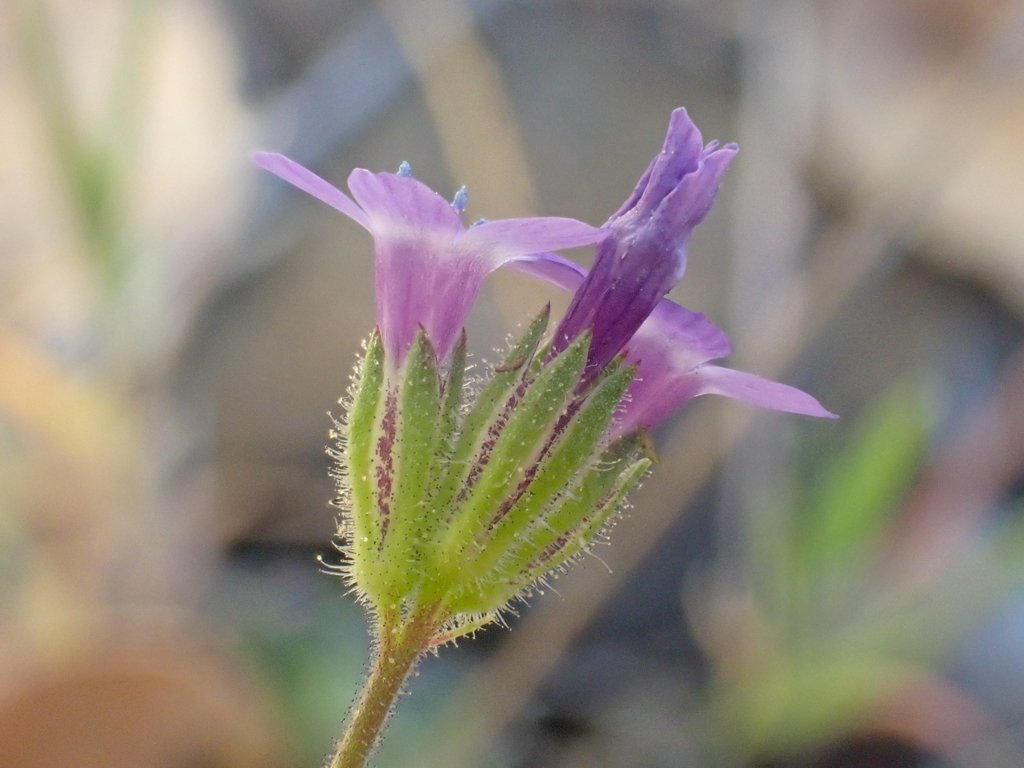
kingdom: Plantae
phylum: Tracheophyta
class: Magnoliopsida
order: Ericales
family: Polemoniaceae
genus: Gilia
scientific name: Gilia achilleifolia
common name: California gily-flower
